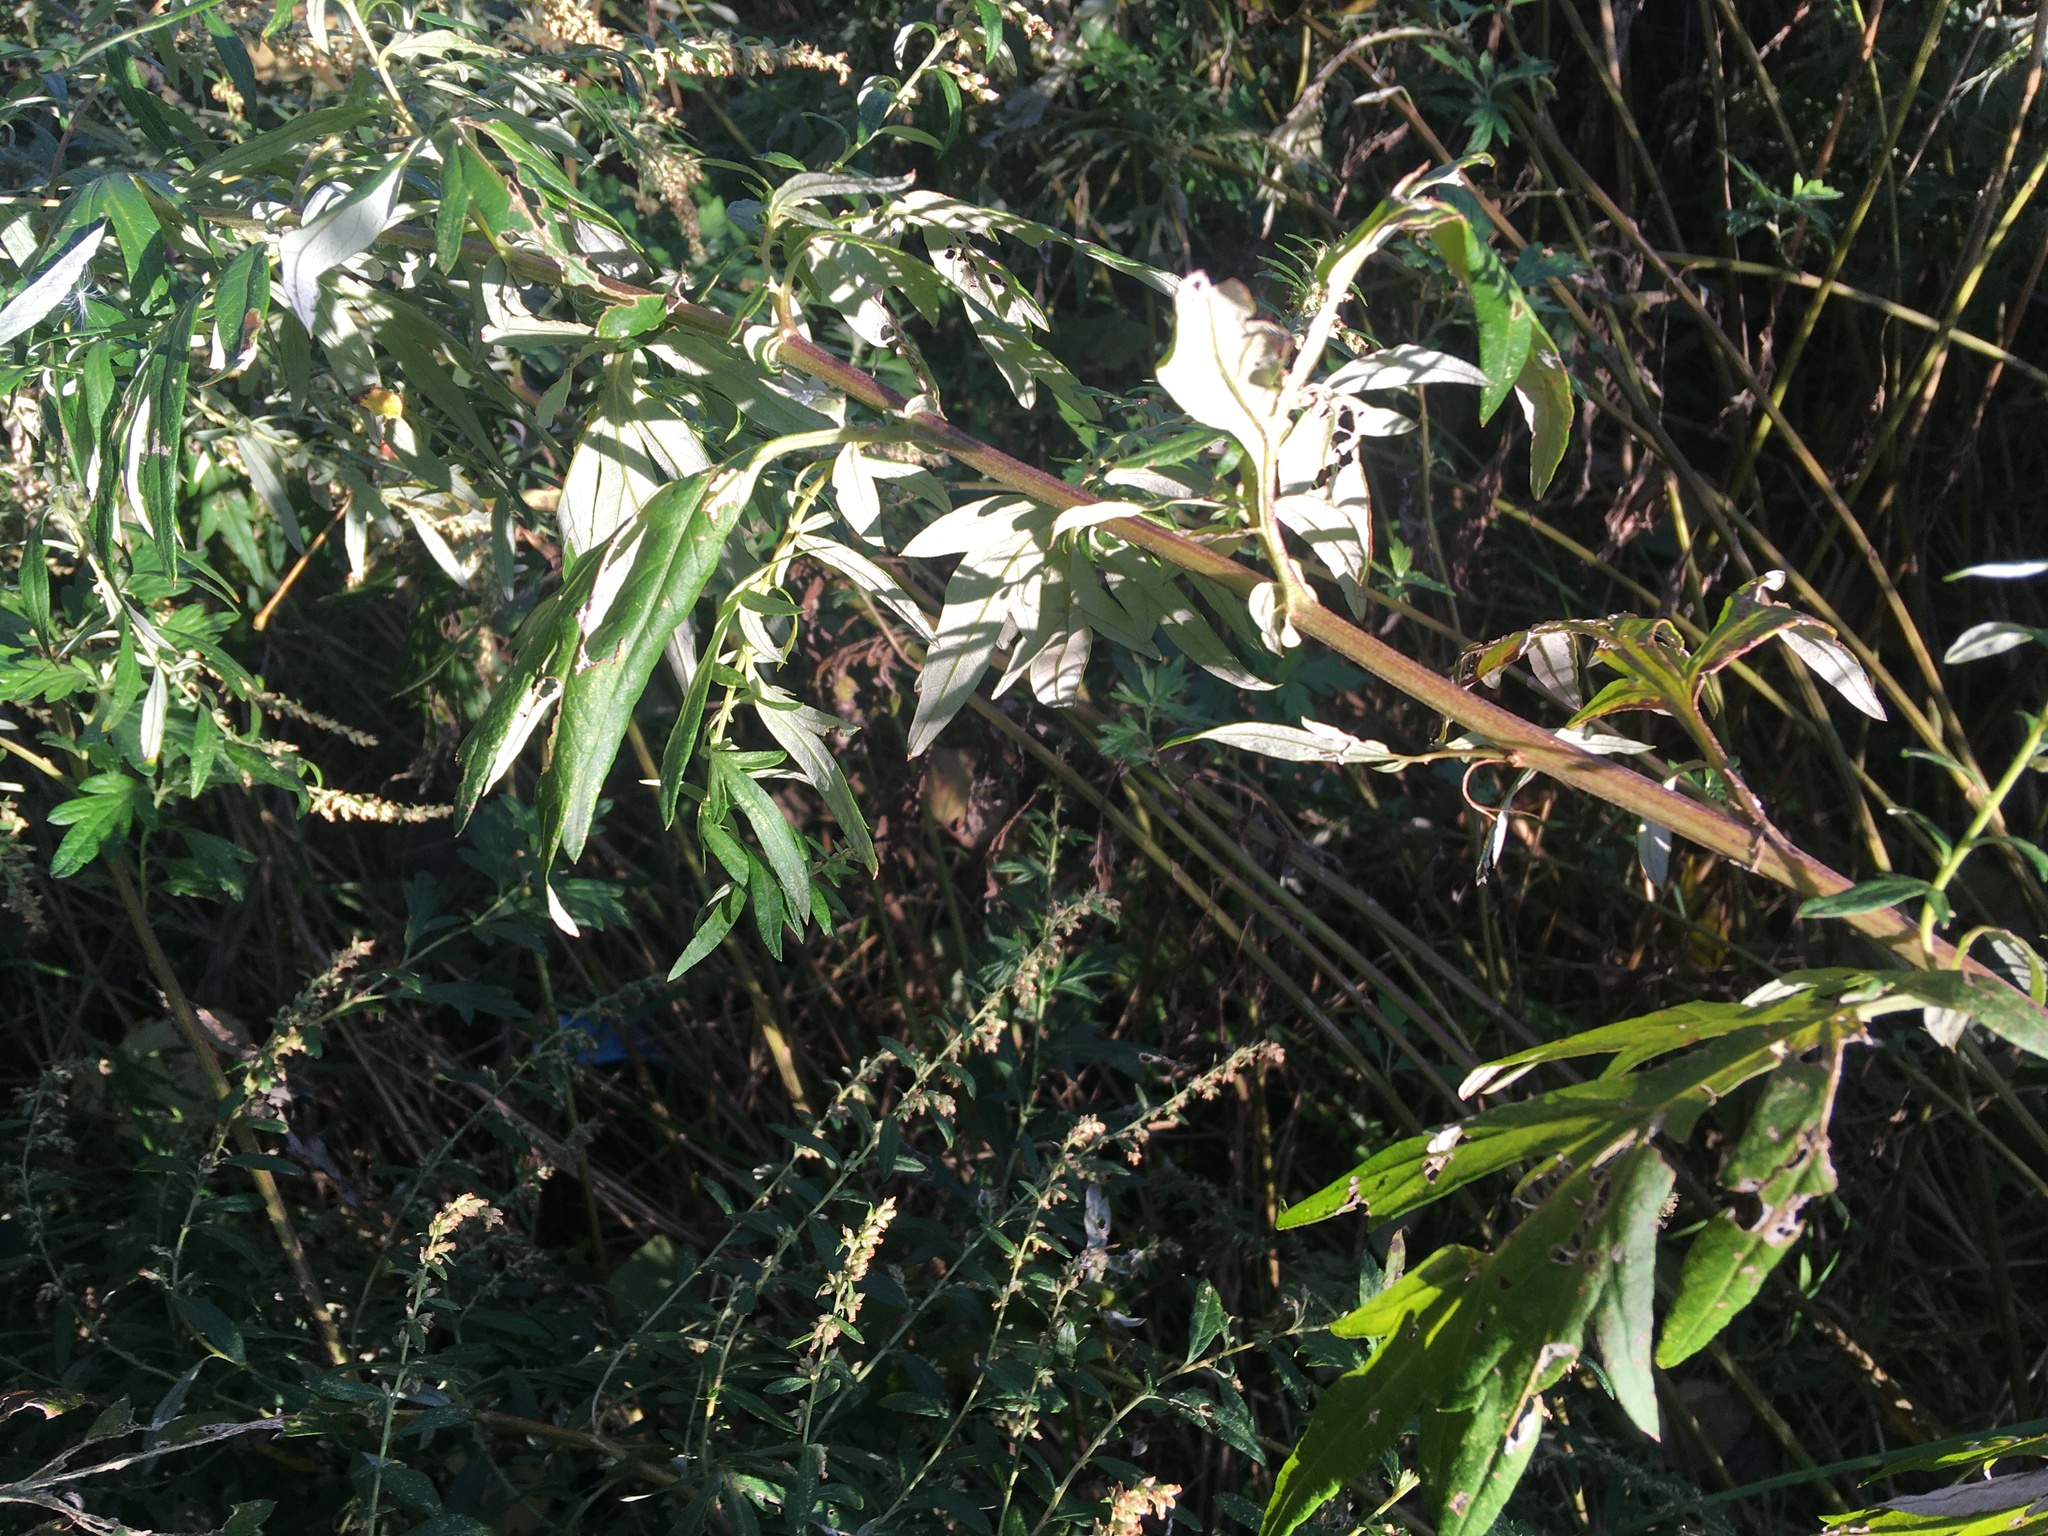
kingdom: Plantae
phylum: Tracheophyta
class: Magnoliopsida
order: Asterales
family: Asteraceae
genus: Artemisia
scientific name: Artemisia vulgaris
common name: Mugwort
